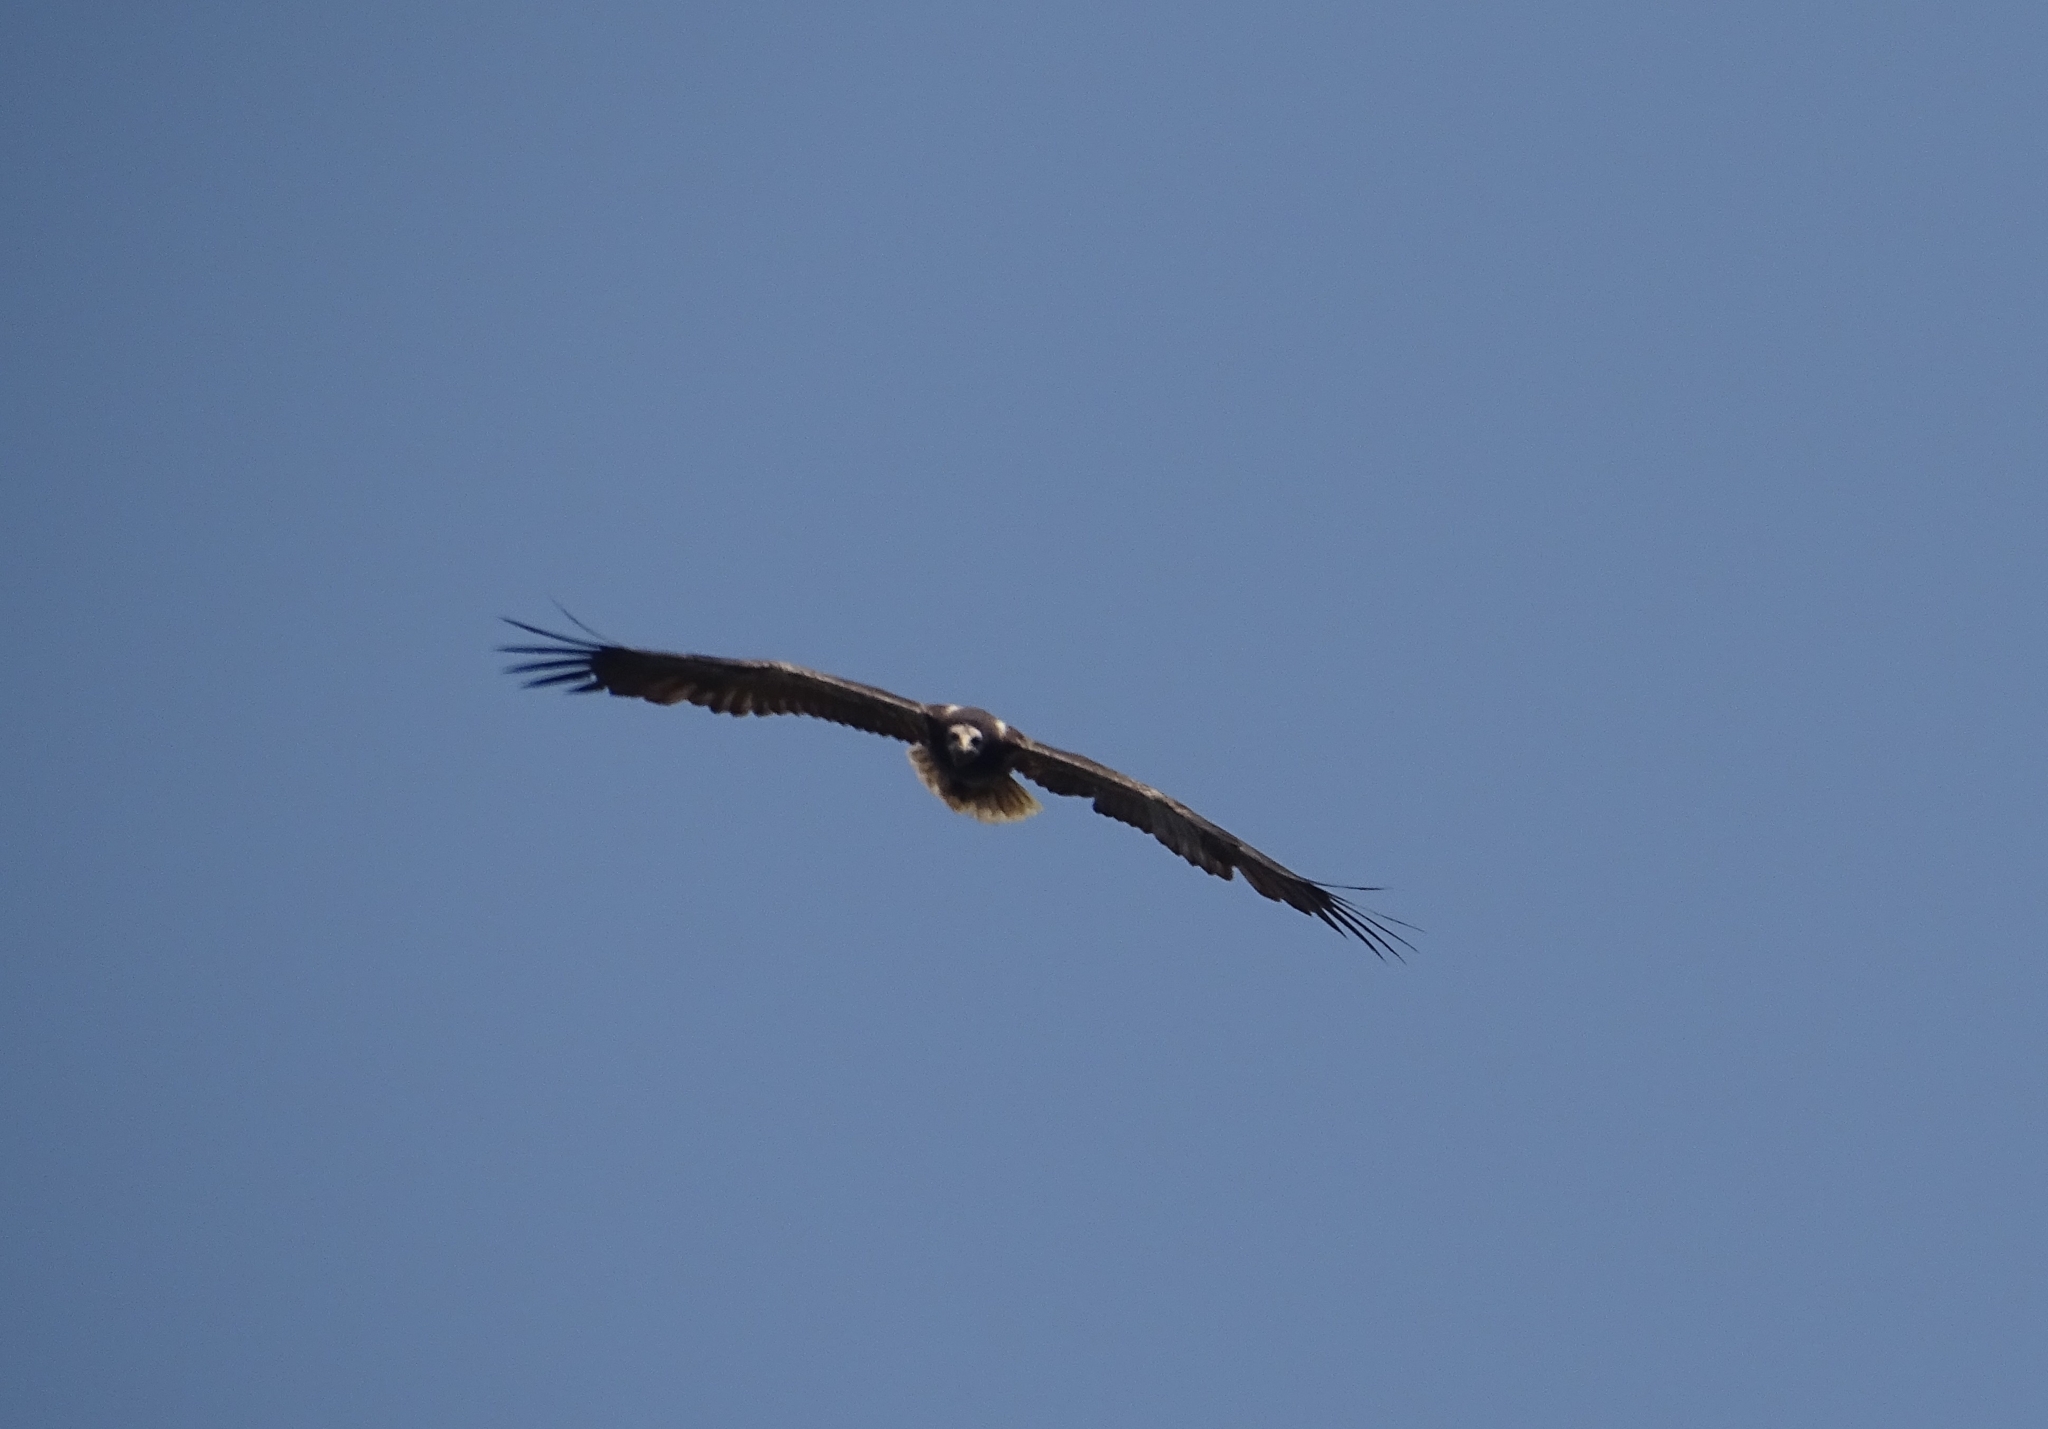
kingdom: Animalia
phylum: Chordata
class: Aves
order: Accipitriformes
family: Accipitridae
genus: Neophron
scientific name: Neophron percnopterus
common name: Egyptian vulture
